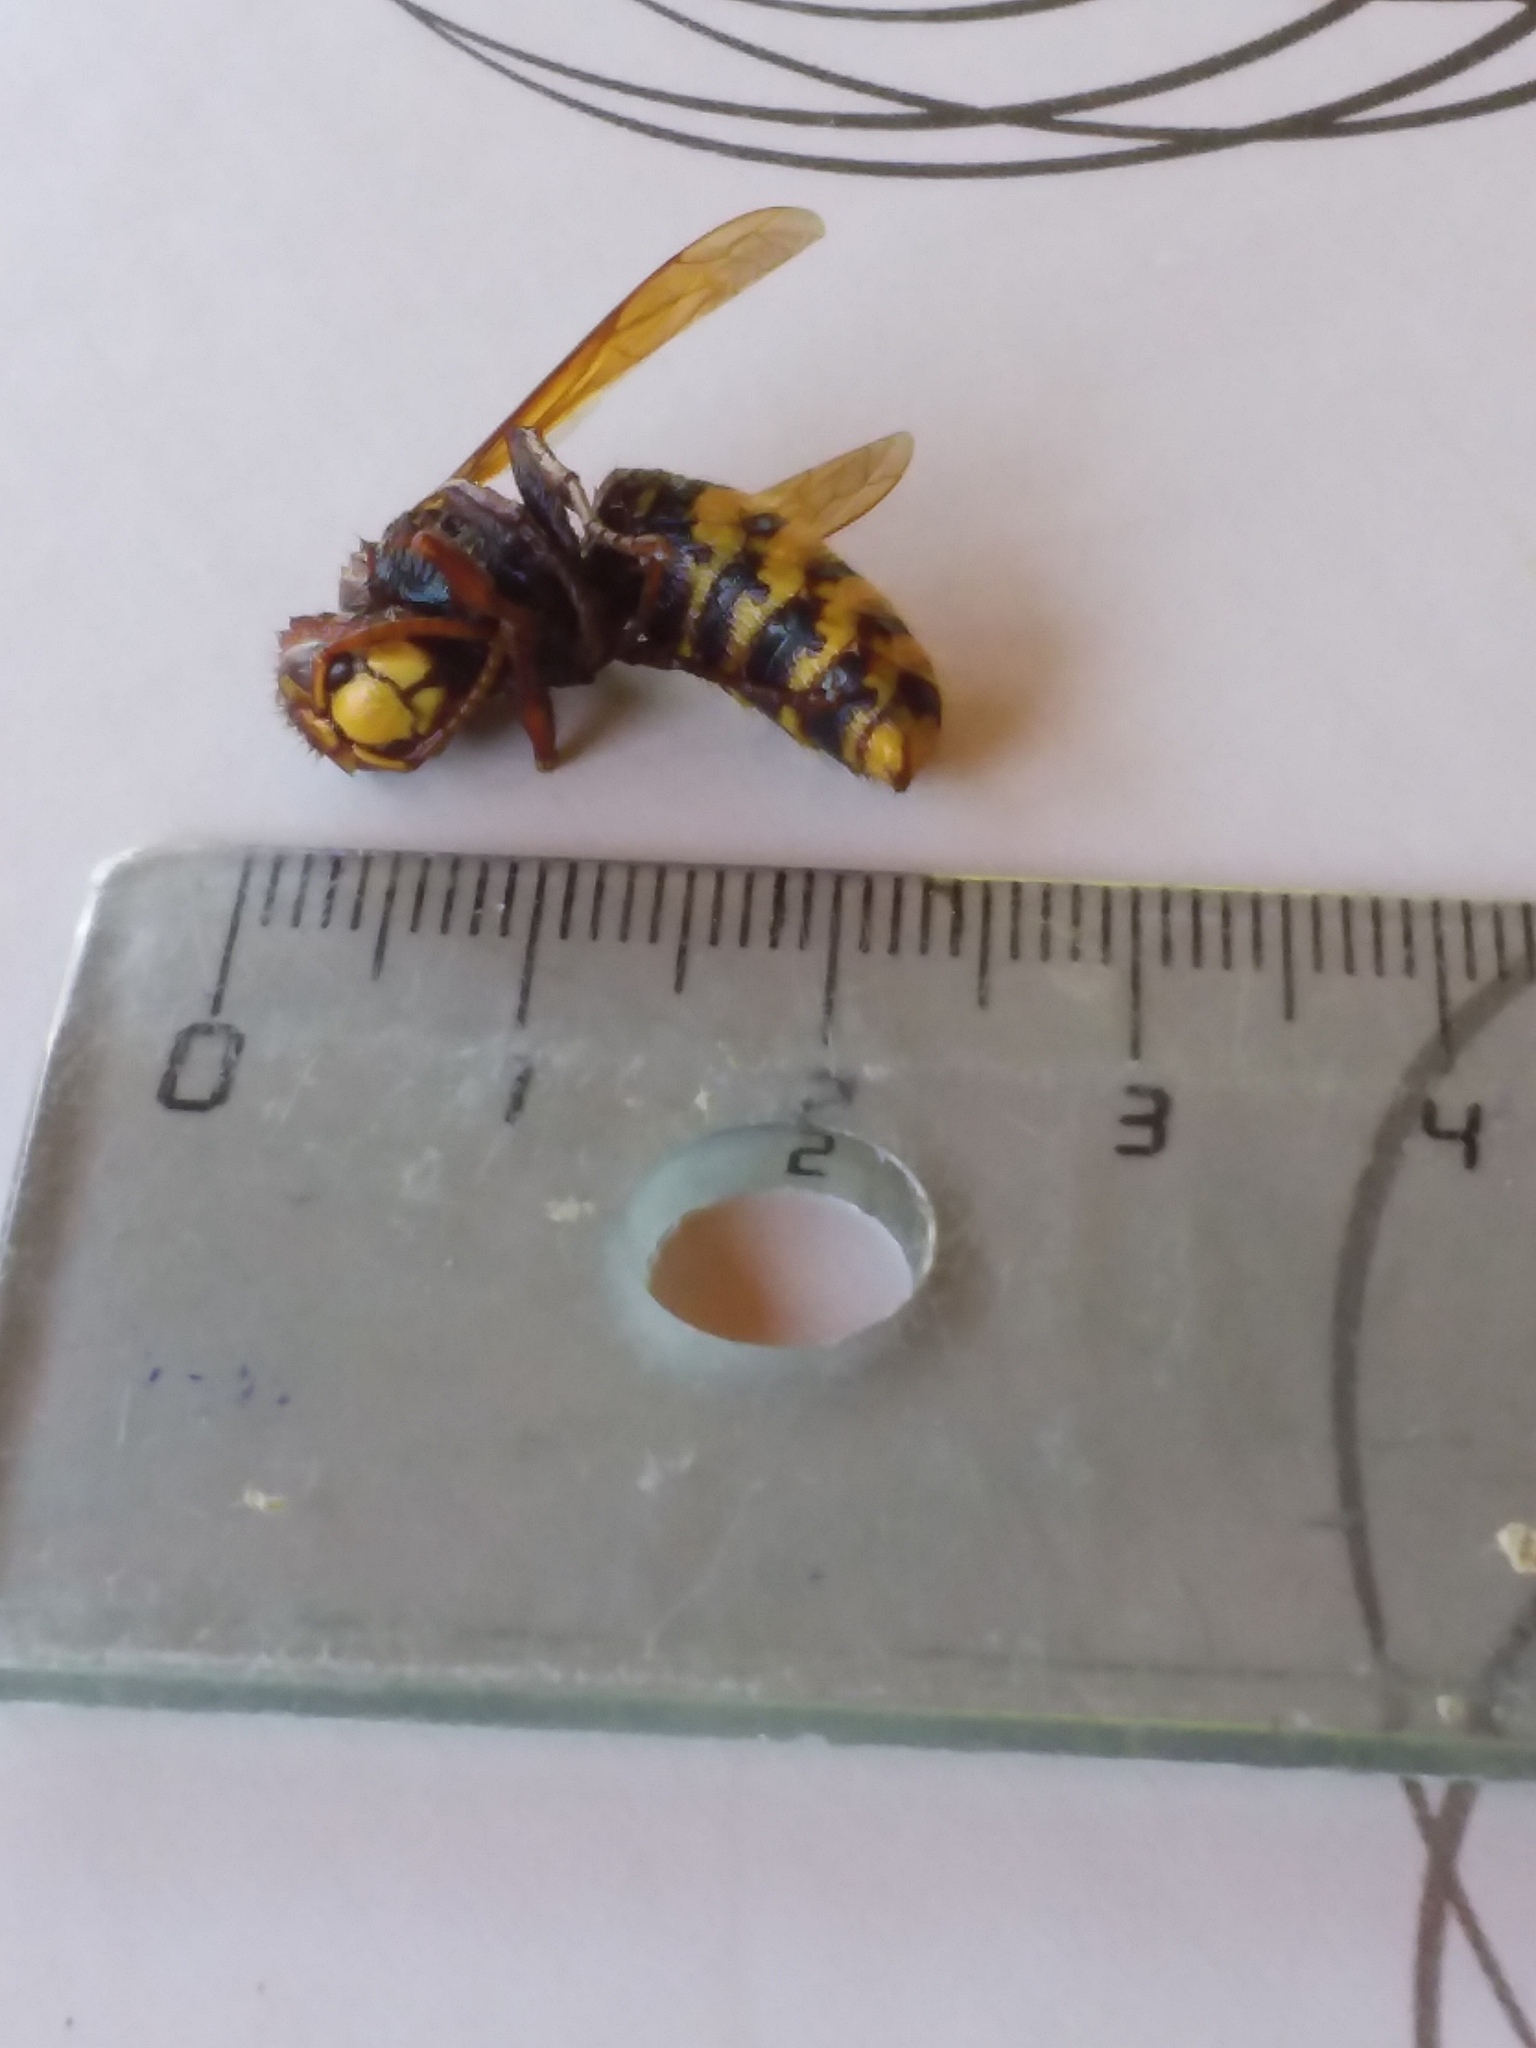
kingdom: Animalia
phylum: Arthropoda
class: Insecta
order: Hymenoptera
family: Vespidae
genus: Vespa
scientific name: Vespa crabro
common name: Hornet
